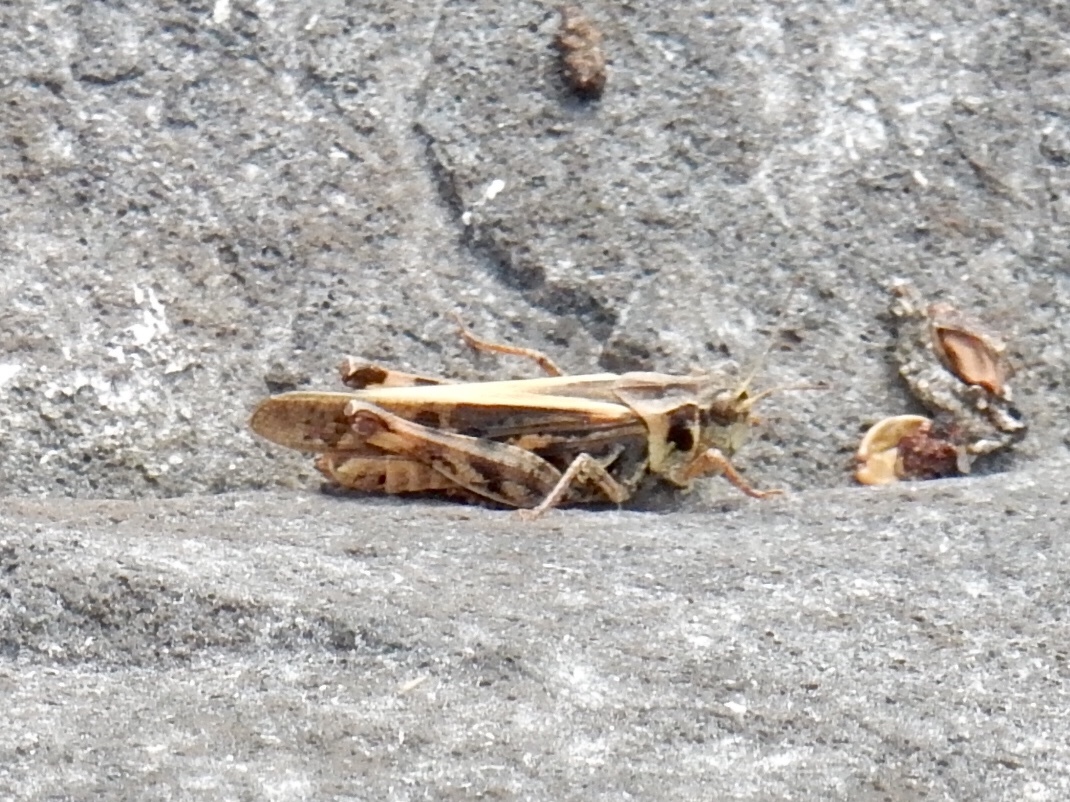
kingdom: Animalia
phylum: Arthropoda
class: Insecta
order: Orthoptera
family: Acrididae
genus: Camnula
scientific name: Camnula pellucida
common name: Clear-winged grasshopper
